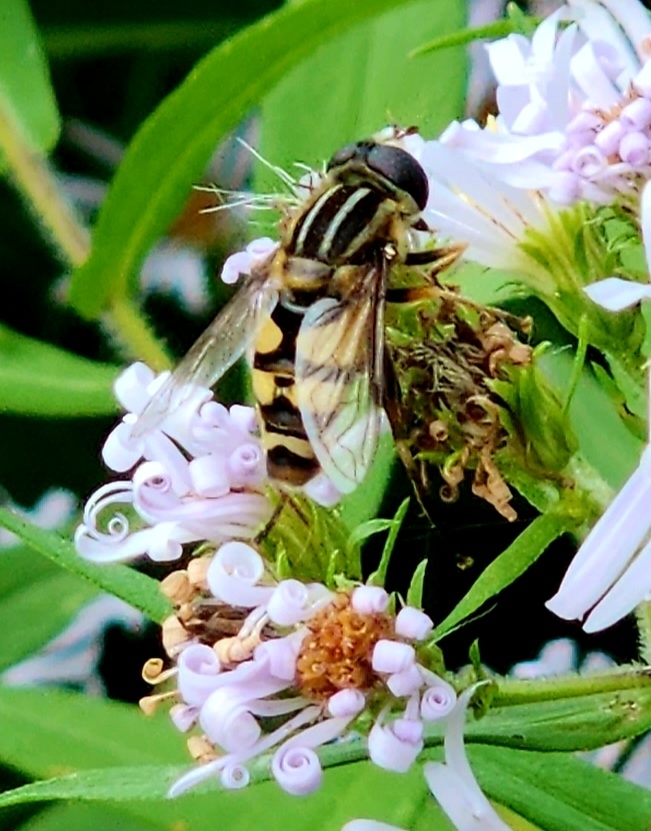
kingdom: Animalia
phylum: Arthropoda
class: Insecta
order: Diptera
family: Syrphidae
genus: Helophilus
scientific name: Helophilus fasciatus
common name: Narrow-headed marsh fly
